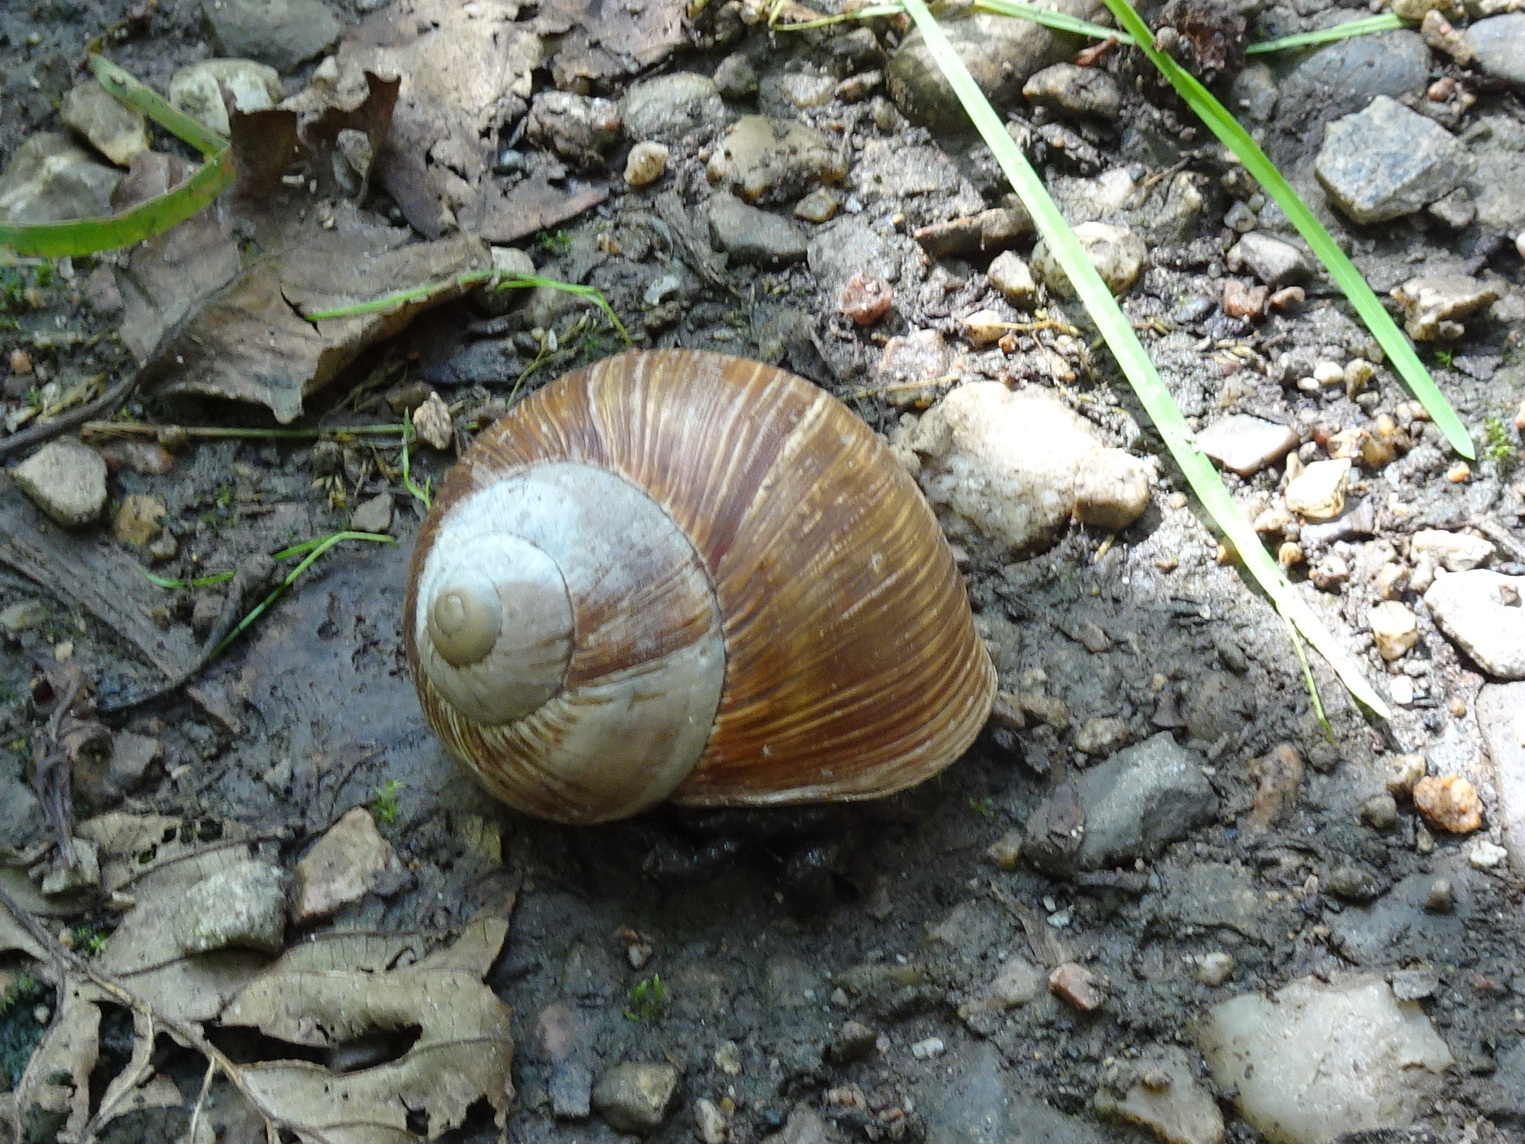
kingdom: Animalia
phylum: Mollusca
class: Gastropoda
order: Stylommatophora
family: Helicidae
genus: Helix
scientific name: Helix pomatia
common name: Roman snail
